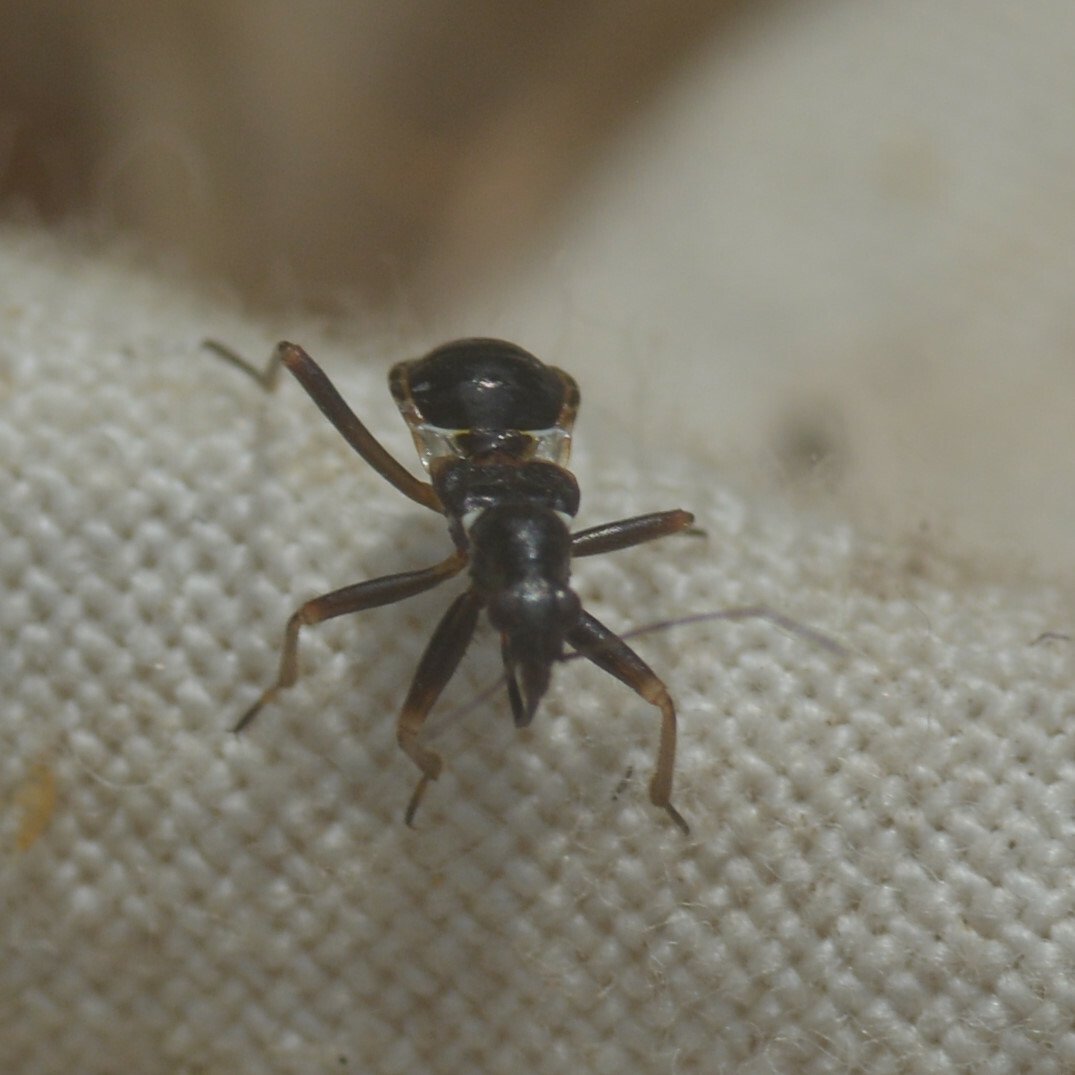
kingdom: Animalia
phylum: Arthropoda
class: Insecta
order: Hemiptera
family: Nabidae
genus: Himacerus
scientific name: Himacerus mirmicoides
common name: Ant damsel bug
